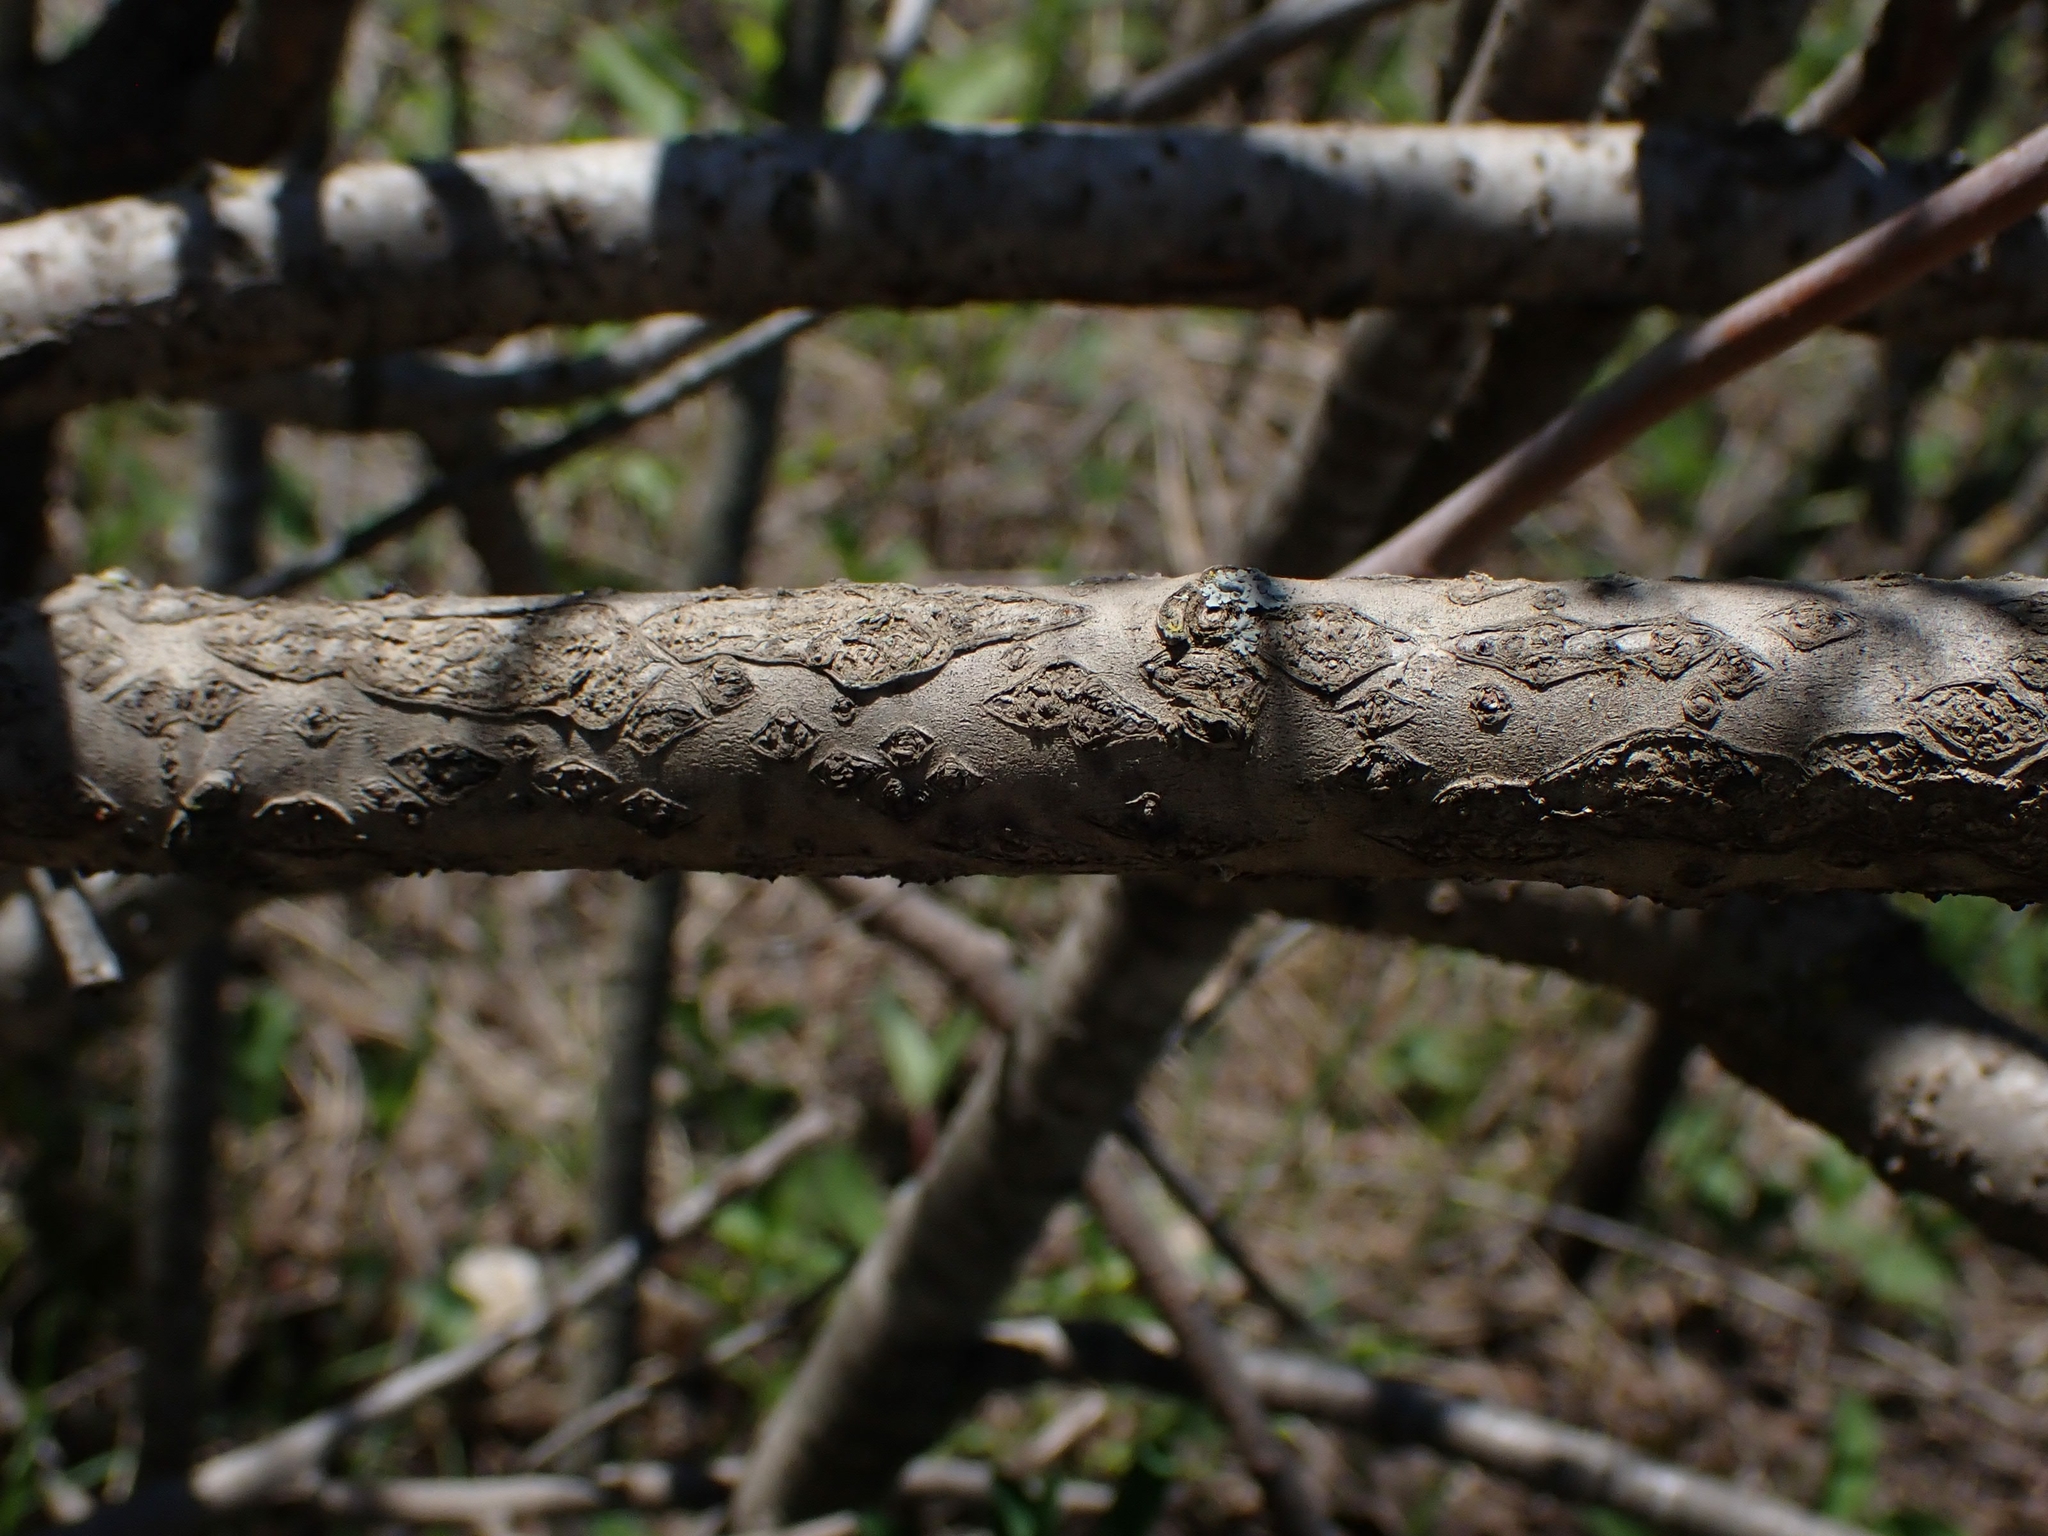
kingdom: Plantae
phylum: Tracheophyta
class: Magnoliopsida
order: Sapindales
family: Anacardiaceae
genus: Rhus
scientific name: Rhus glabra
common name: Scarlet sumac
